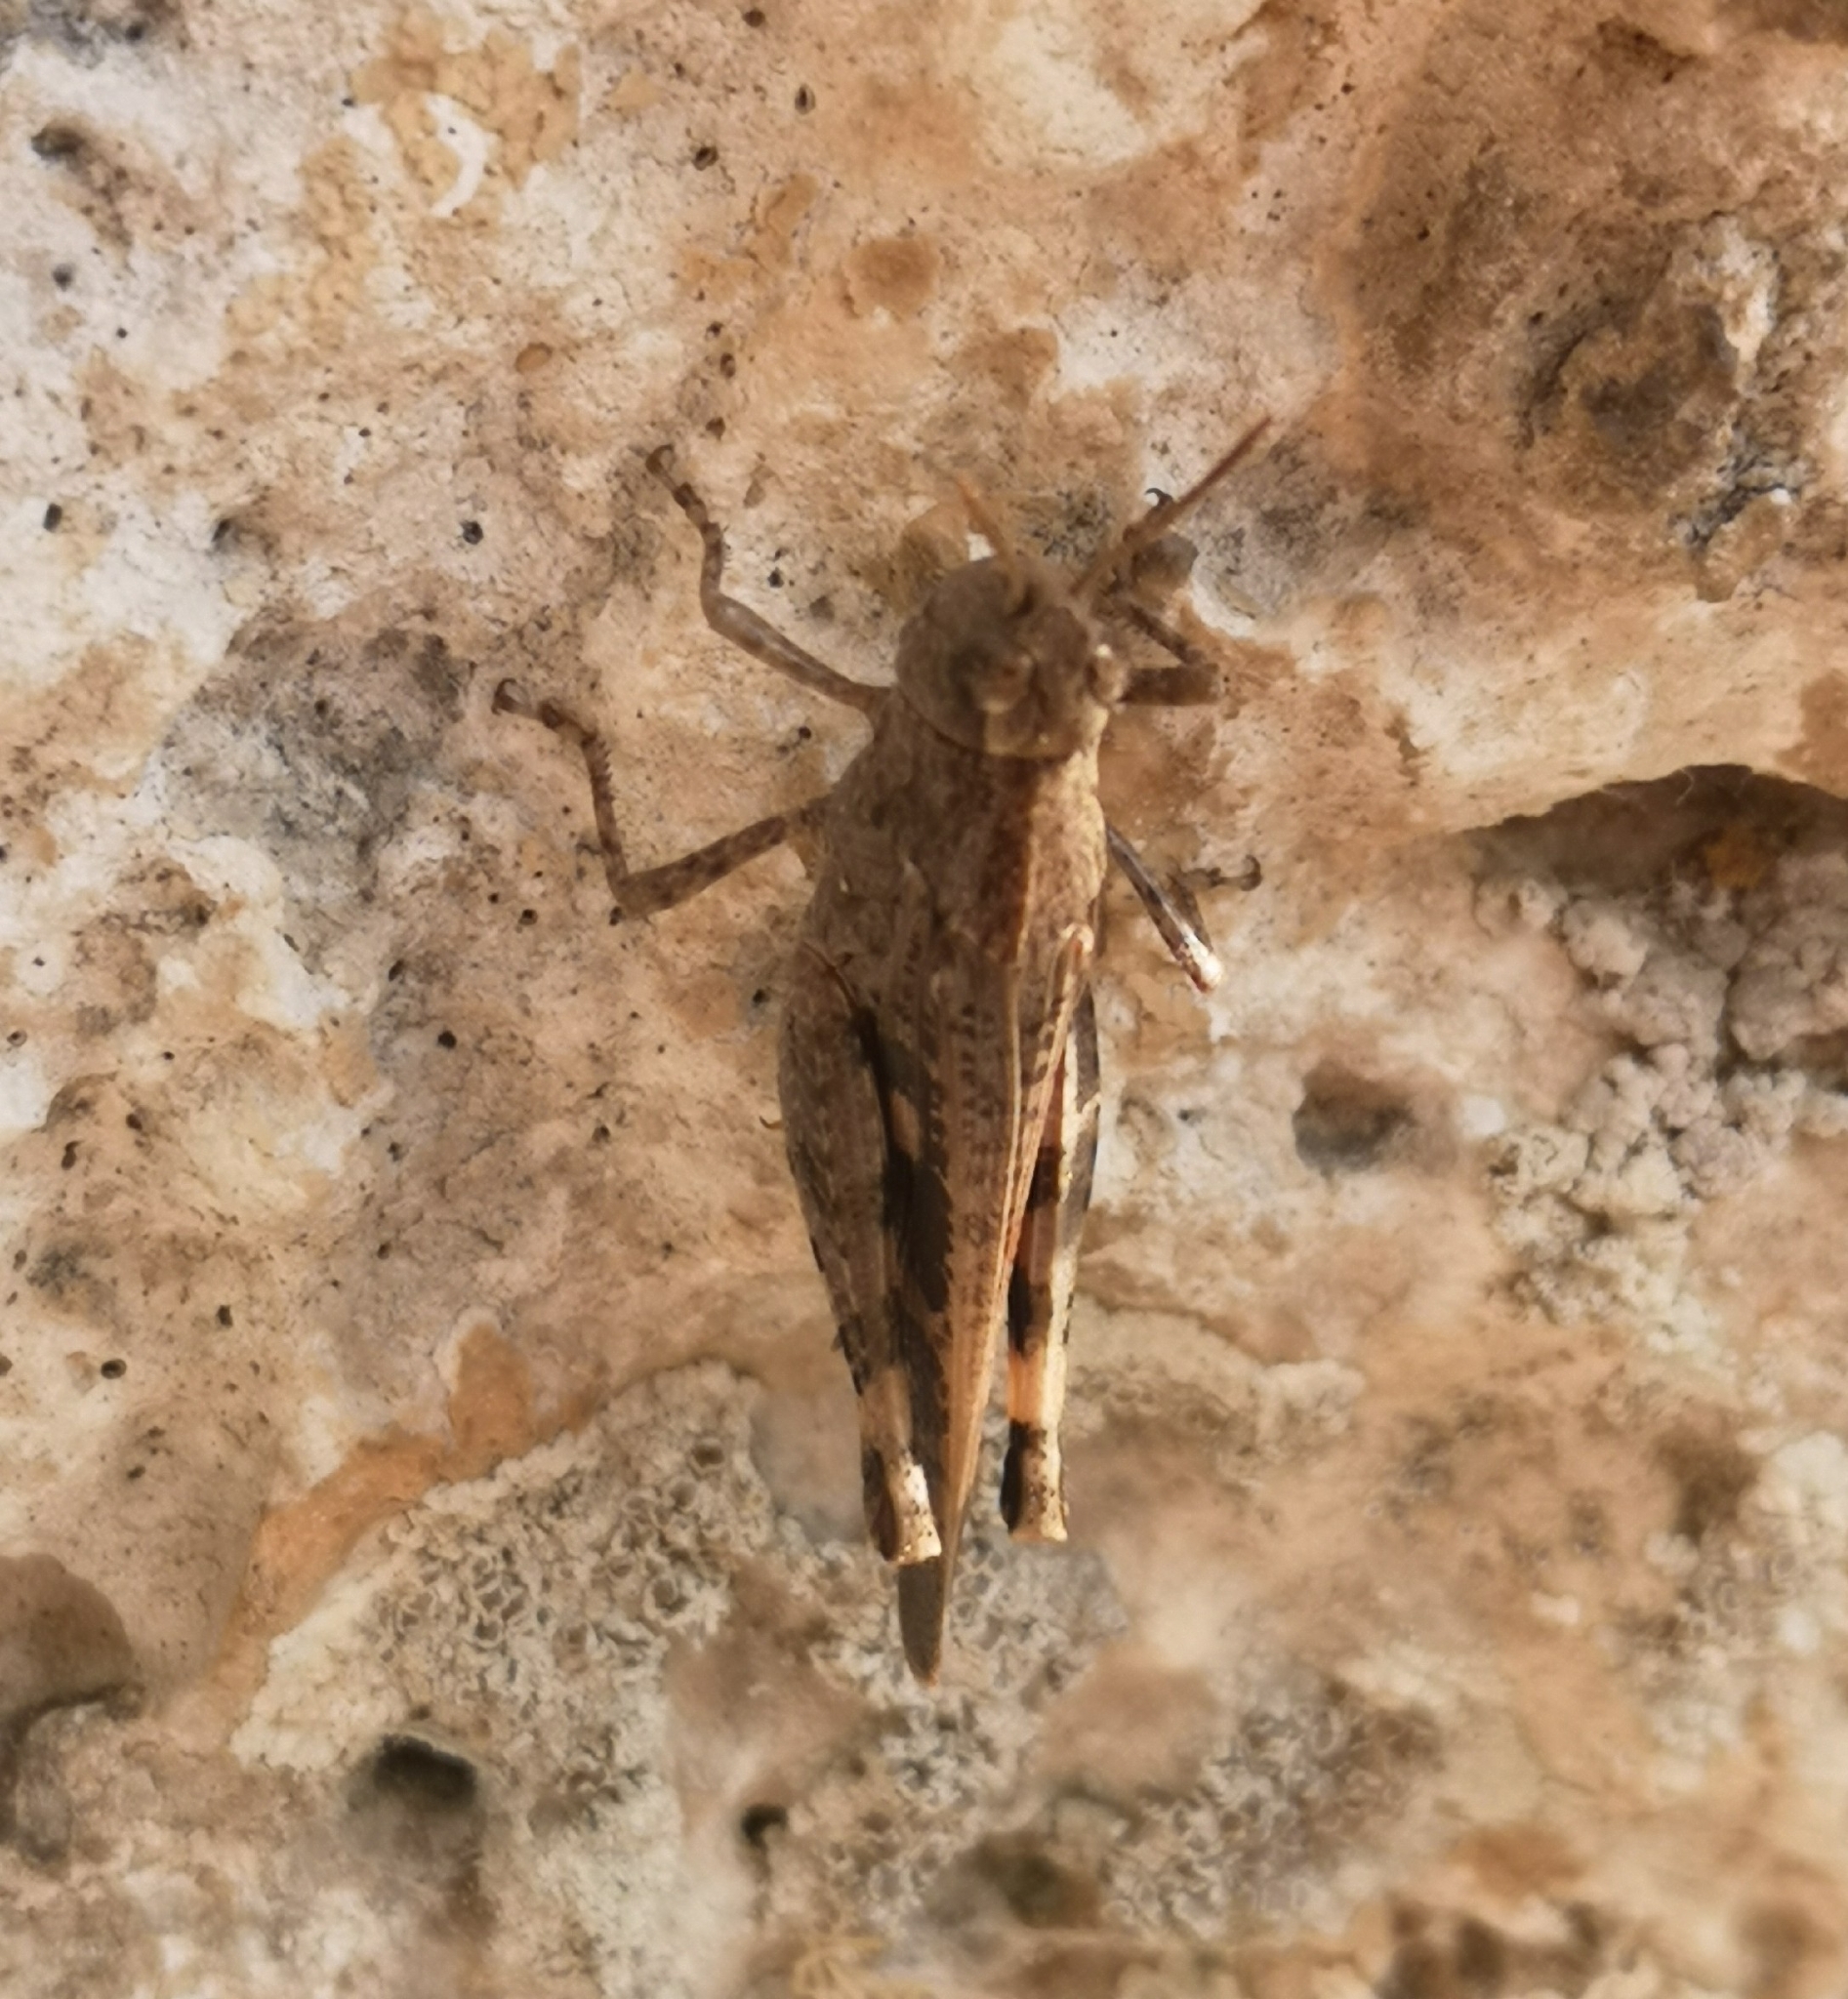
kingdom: Animalia
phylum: Arthropoda
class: Insecta
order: Orthoptera
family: Acrididae
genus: Aiolopus
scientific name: Aiolopus strepens
